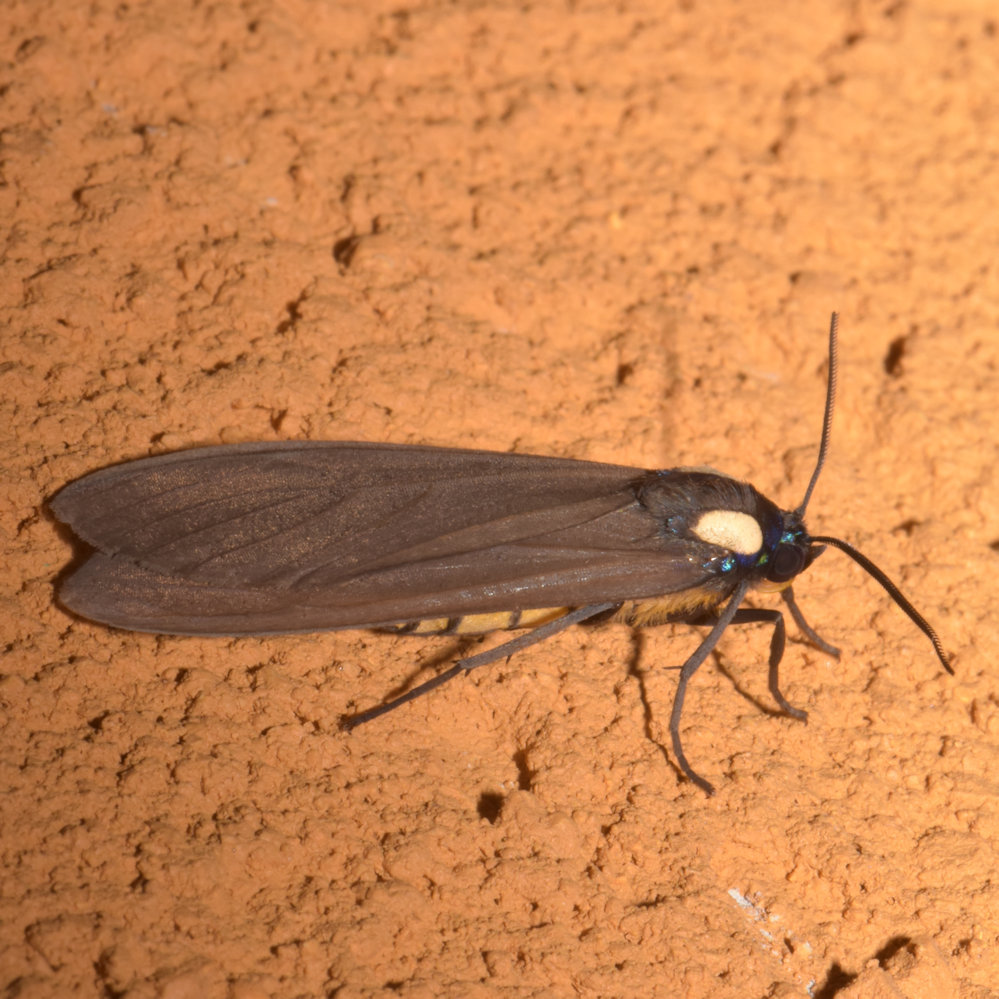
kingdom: Animalia
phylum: Arthropoda
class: Insecta
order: Lepidoptera
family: Erebidae
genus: Opharus
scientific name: Opharus bimaculata
